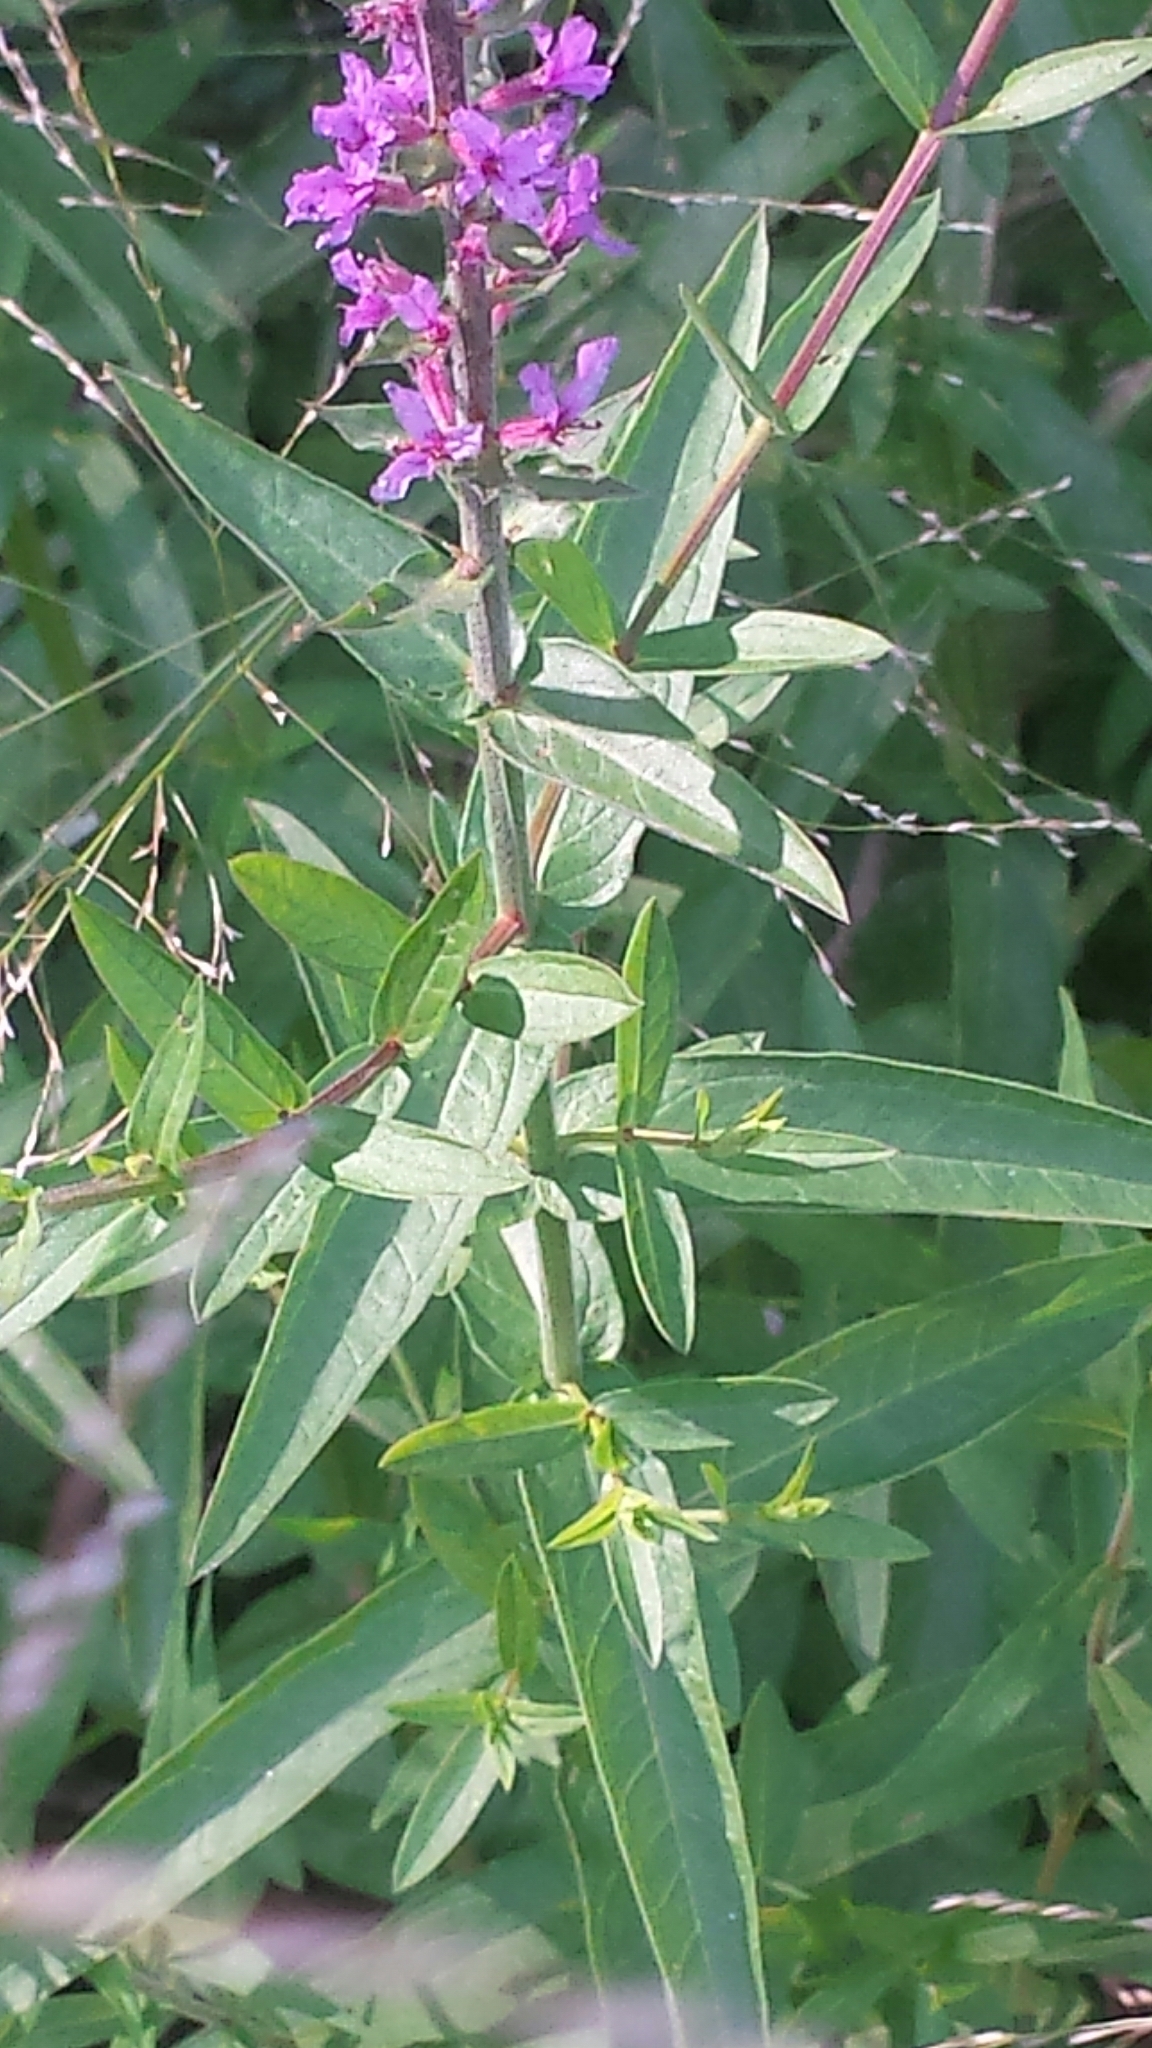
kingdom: Plantae
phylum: Tracheophyta
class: Magnoliopsida
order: Myrtales
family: Lythraceae
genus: Lythrum
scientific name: Lythrum salicaria
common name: Purple loosestrife
